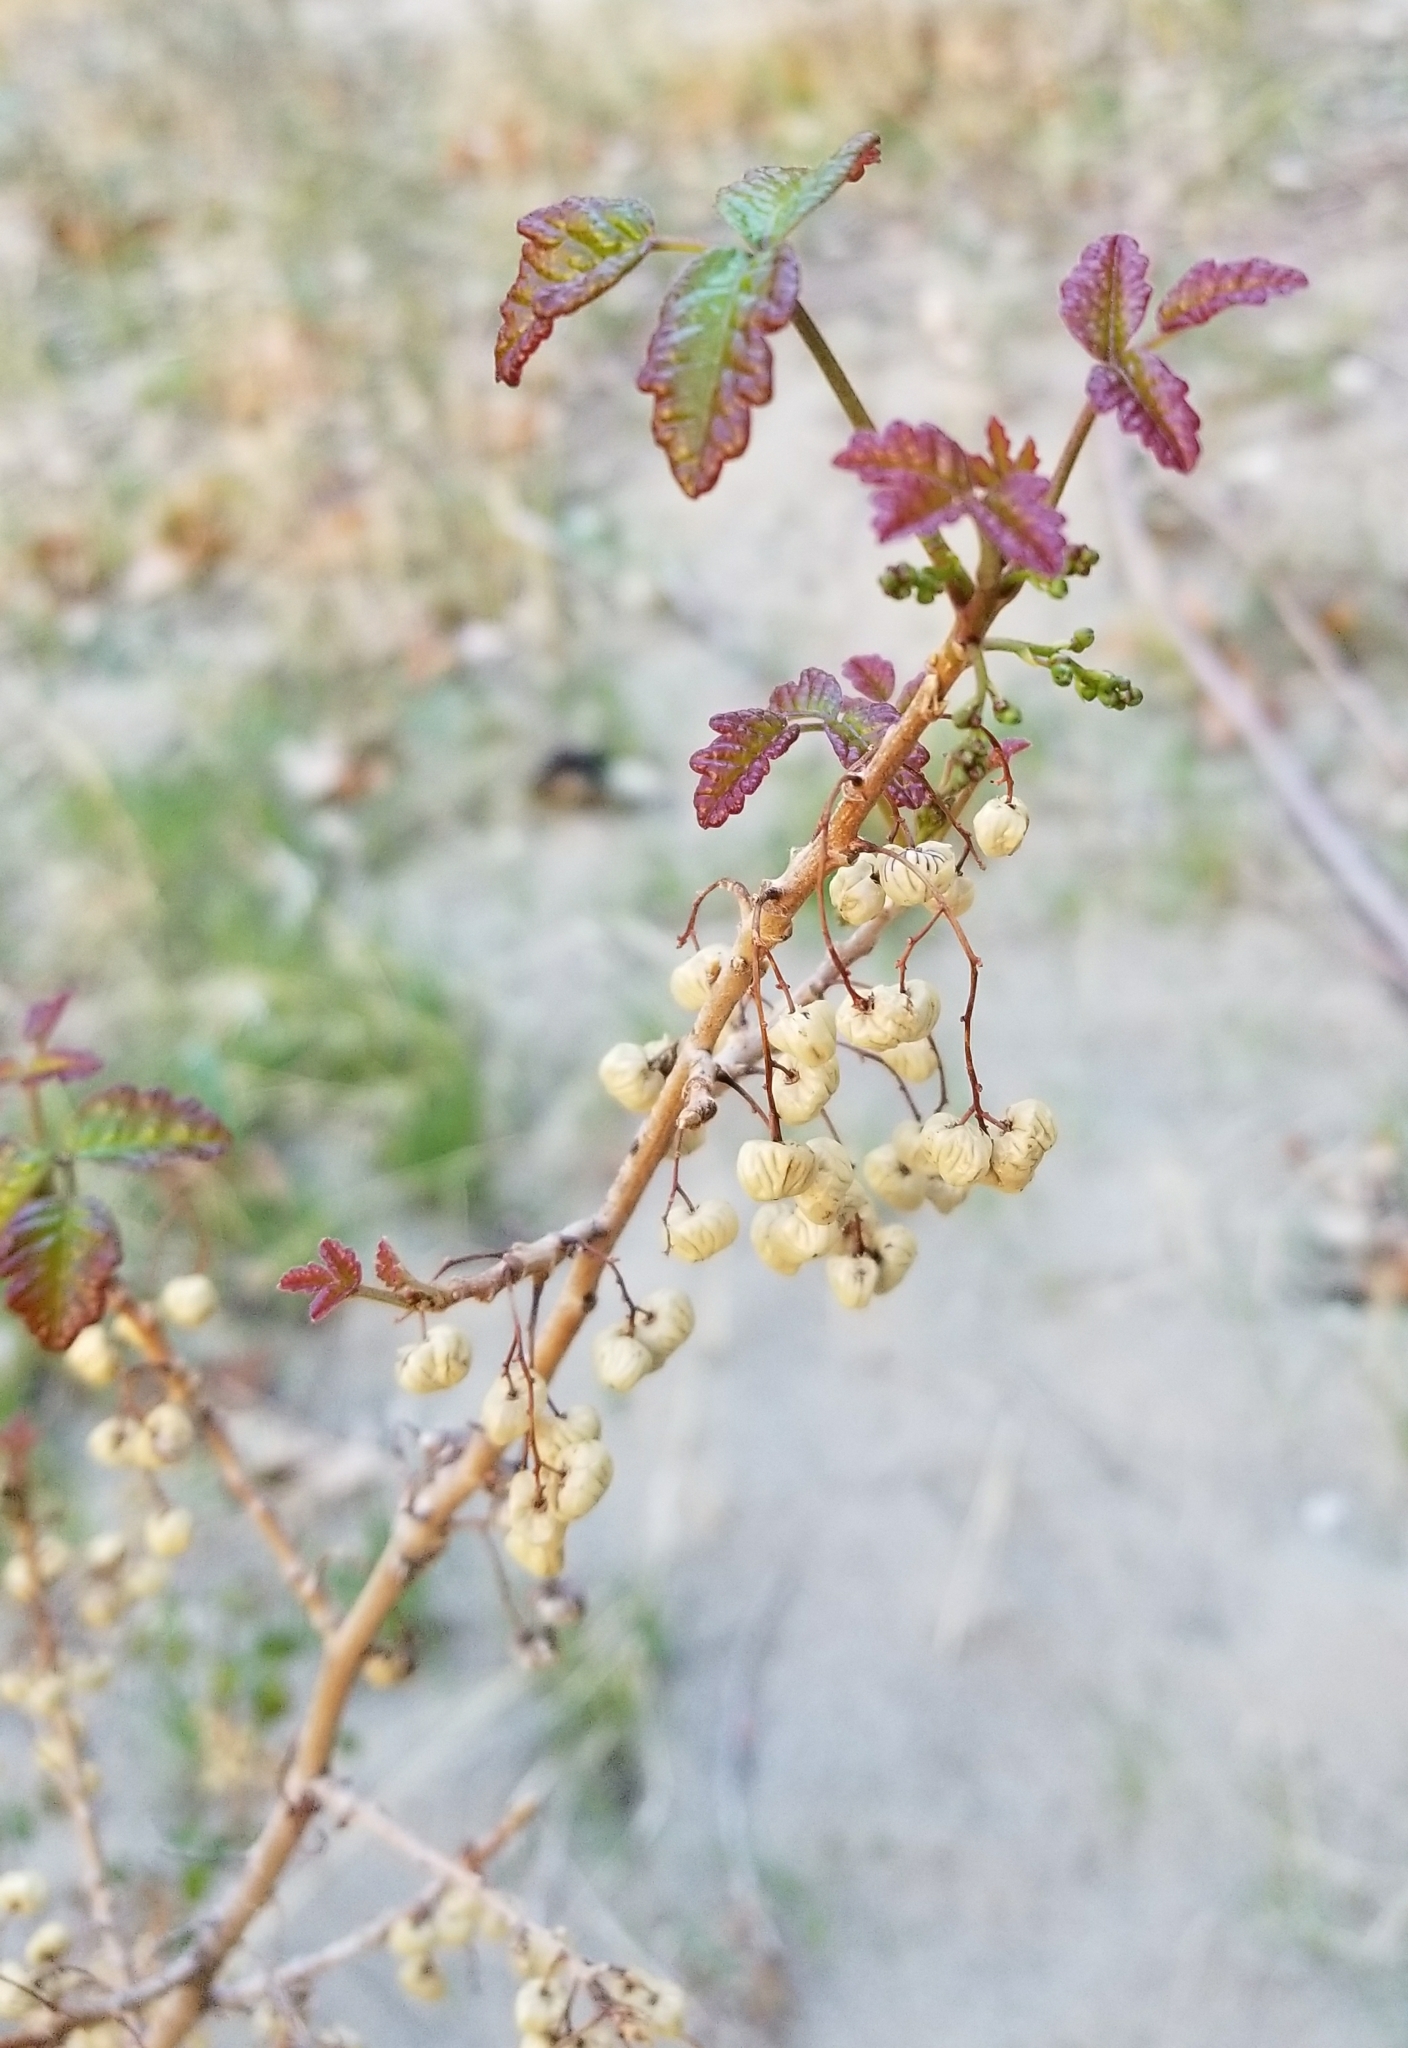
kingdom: Plantae
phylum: Tracheophyta
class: Magnoliopsida
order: Sapindales
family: Anacardiaceae
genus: Toxicodendron
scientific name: Toxicodendron diversilobum
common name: Pacific poison-oak
